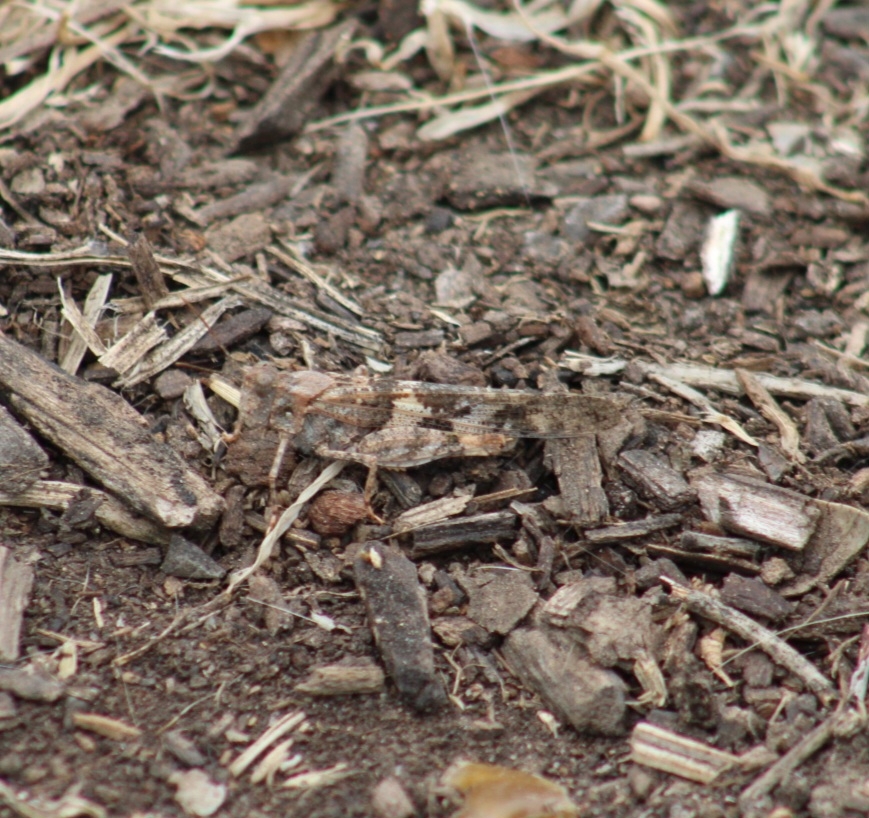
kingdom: Animalia
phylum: Arthropoda
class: Insecta
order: Orthoptera
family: Acrididae
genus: Trimerotropis
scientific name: Trimerotropis pallidipennis
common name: Pallid-winged grasshopper
